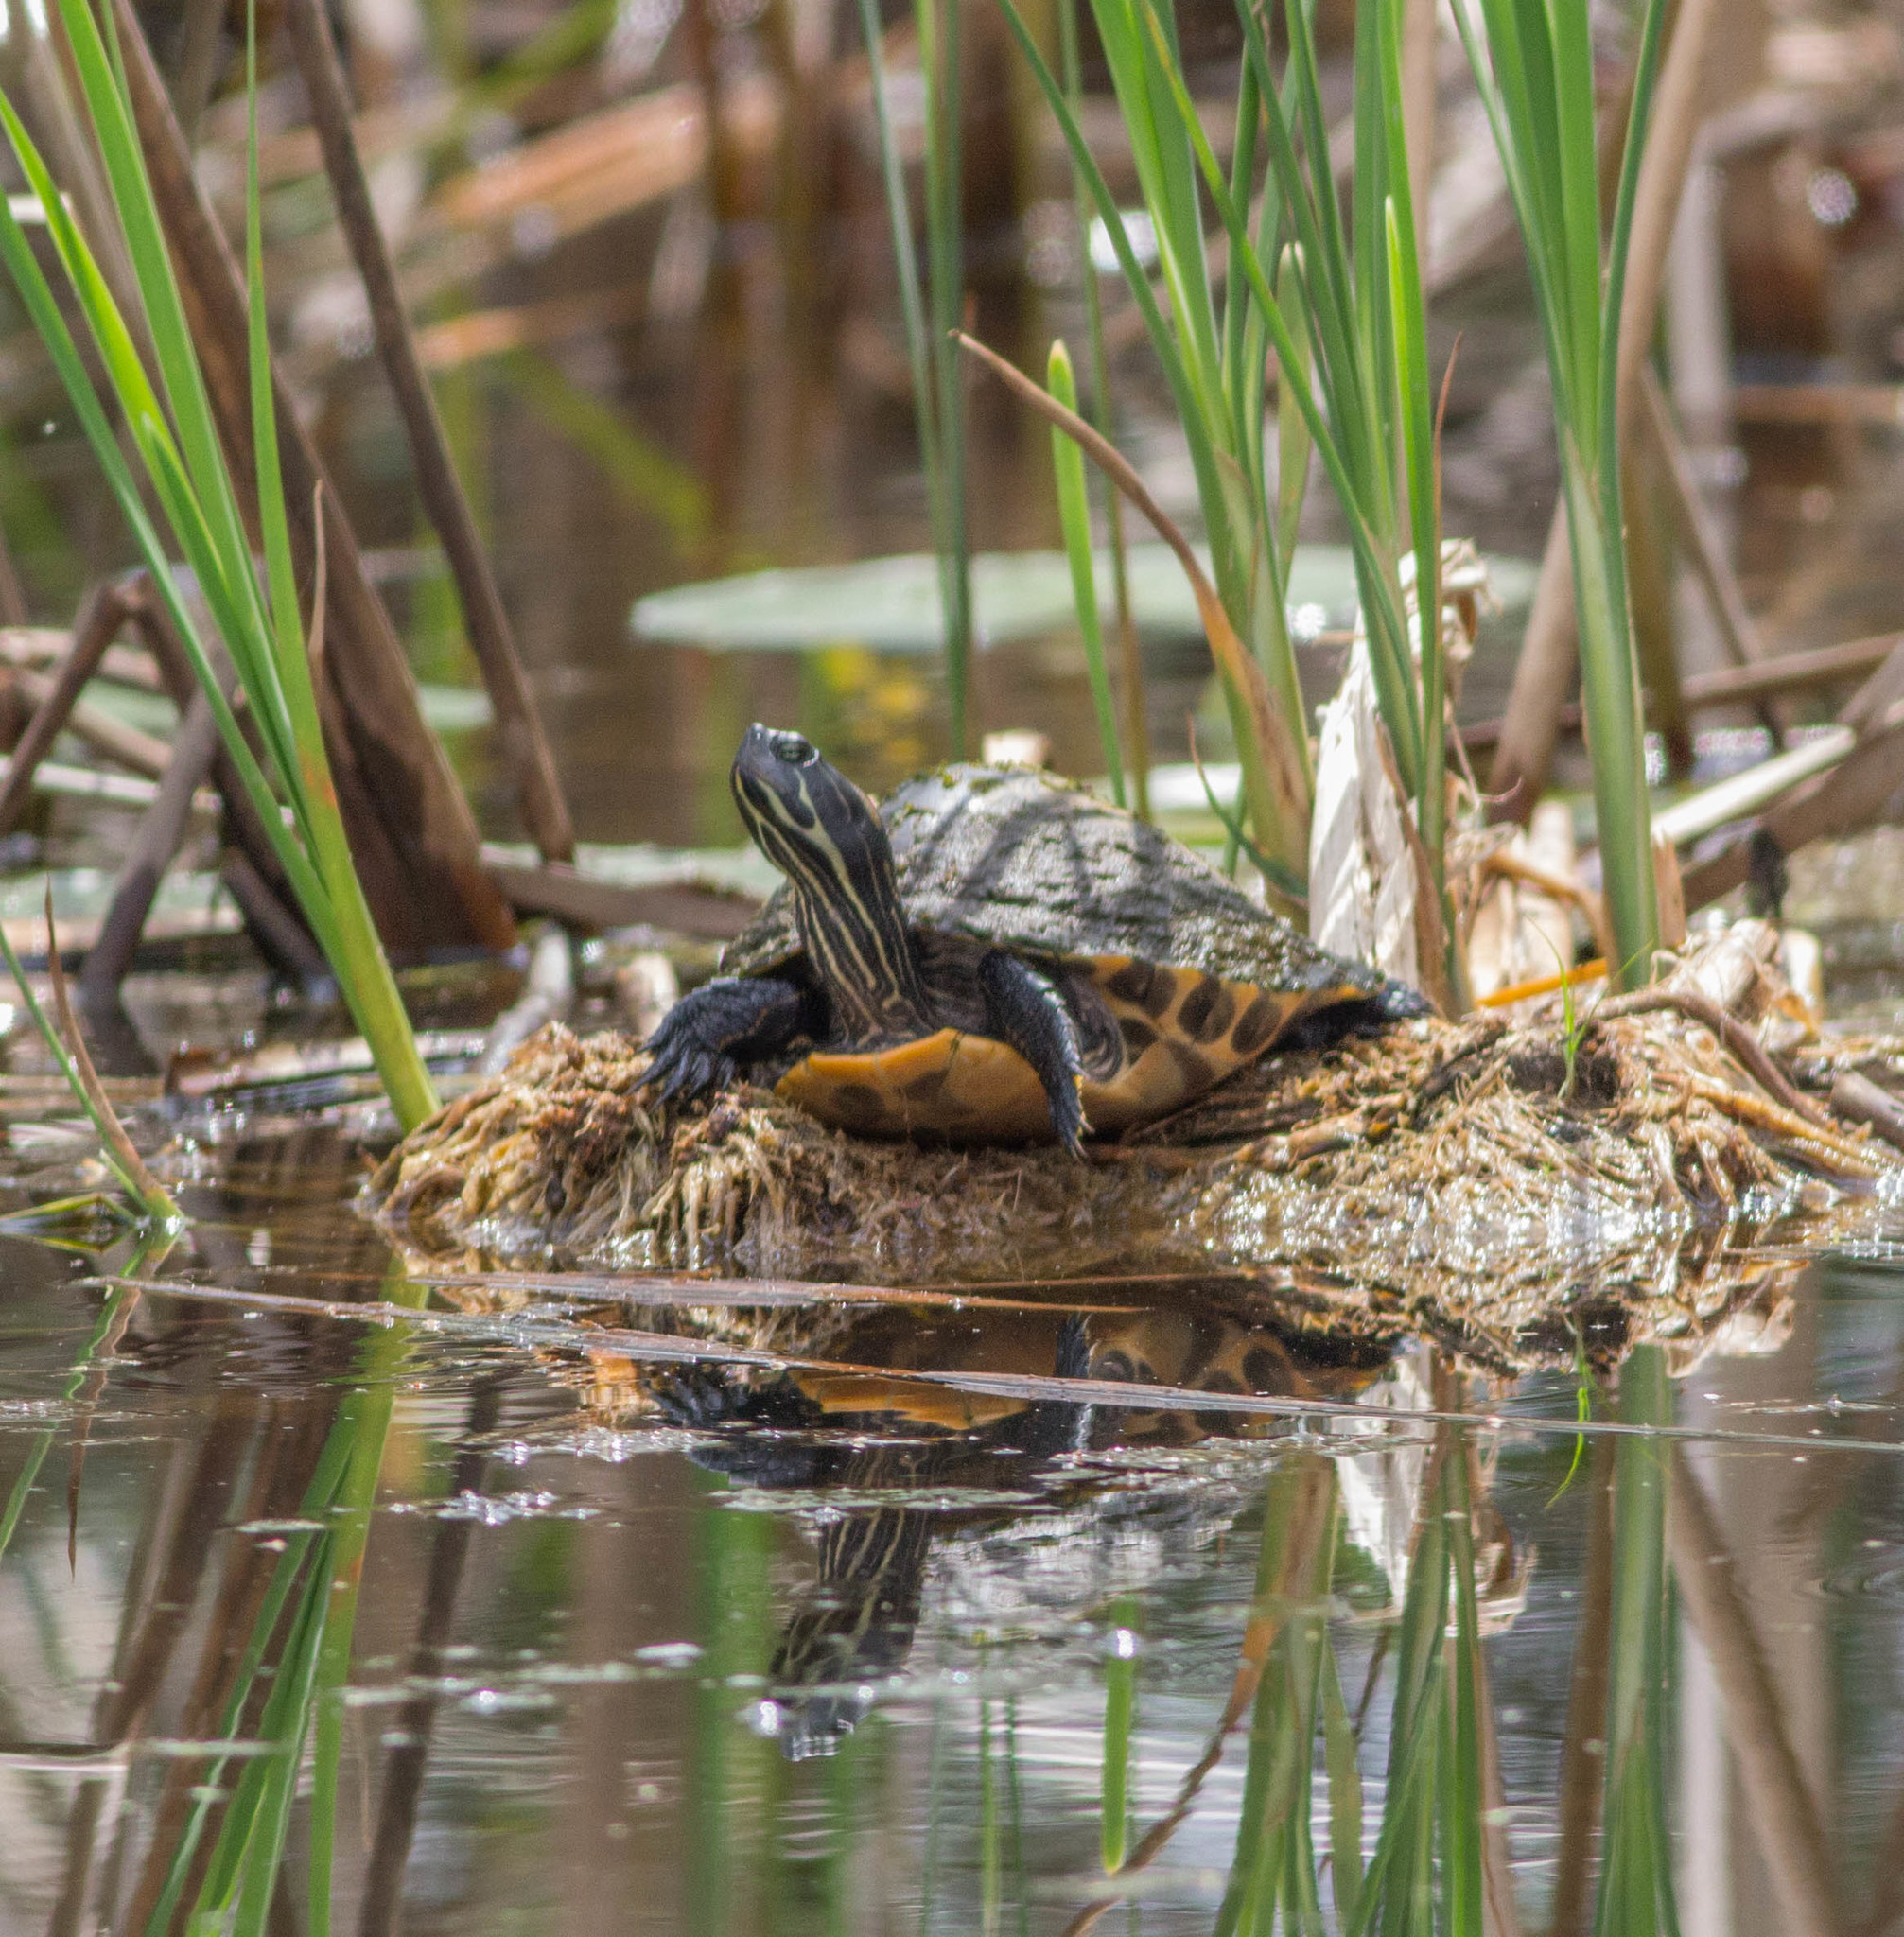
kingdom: Animalia
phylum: Chordata
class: Testudines
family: Emydidae
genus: Pseudemys
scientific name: Pseudemys concinna
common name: Eastern river cooter
